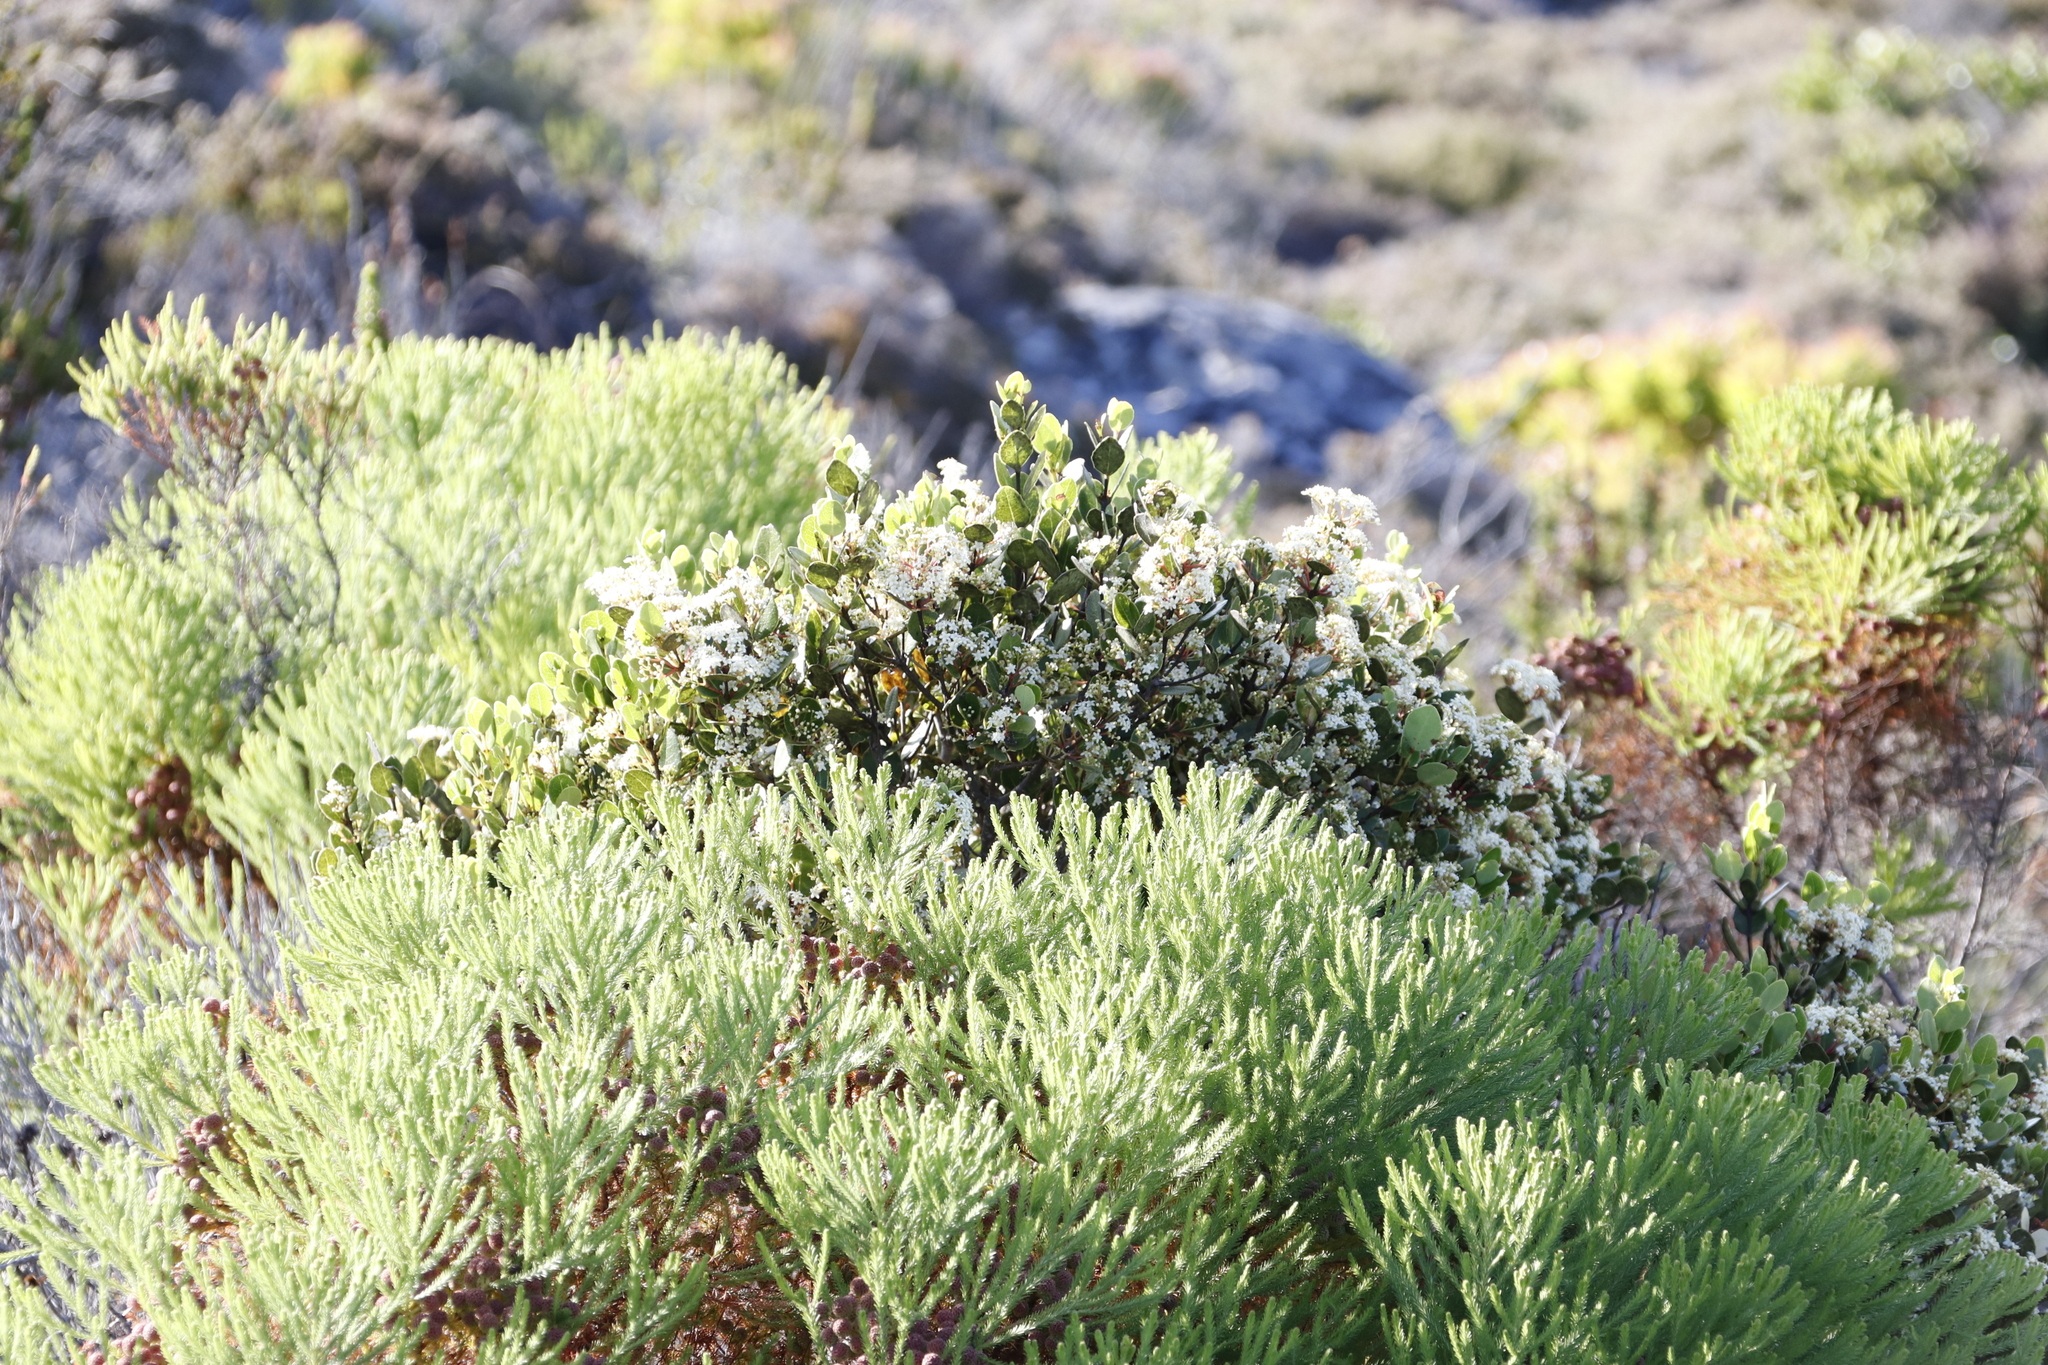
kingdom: Plantae
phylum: Tracheophyta
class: Magnoliopsida
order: Bruniales
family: Bruniaceae
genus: Berzelia
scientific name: Berzelia lanuginosa
